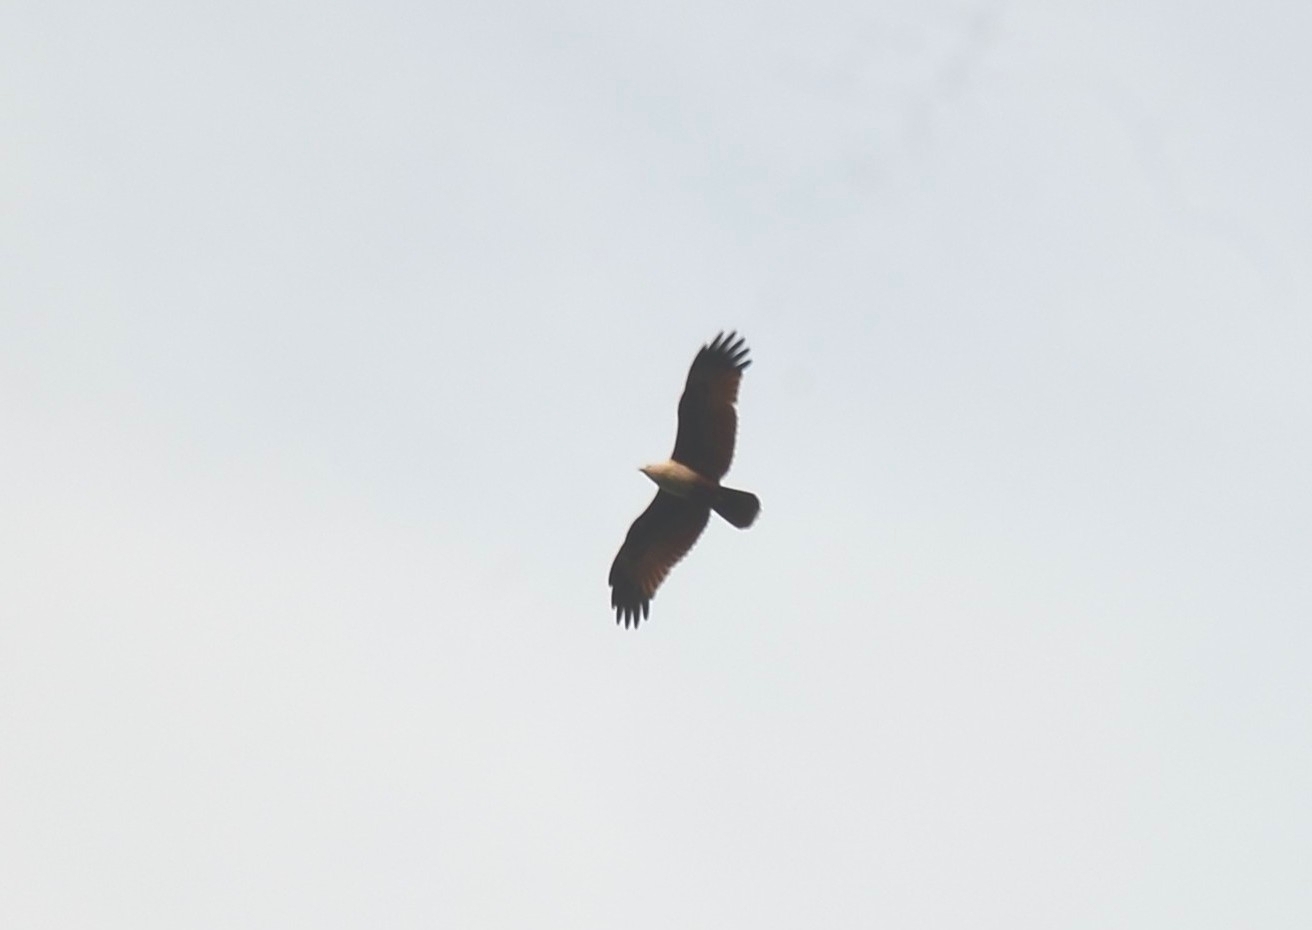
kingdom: Animalia
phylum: Chordata
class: Aves
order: Accipitriformes
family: Accipitridae
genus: Haliastur
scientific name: Haliastur indus
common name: Brahminy kite
